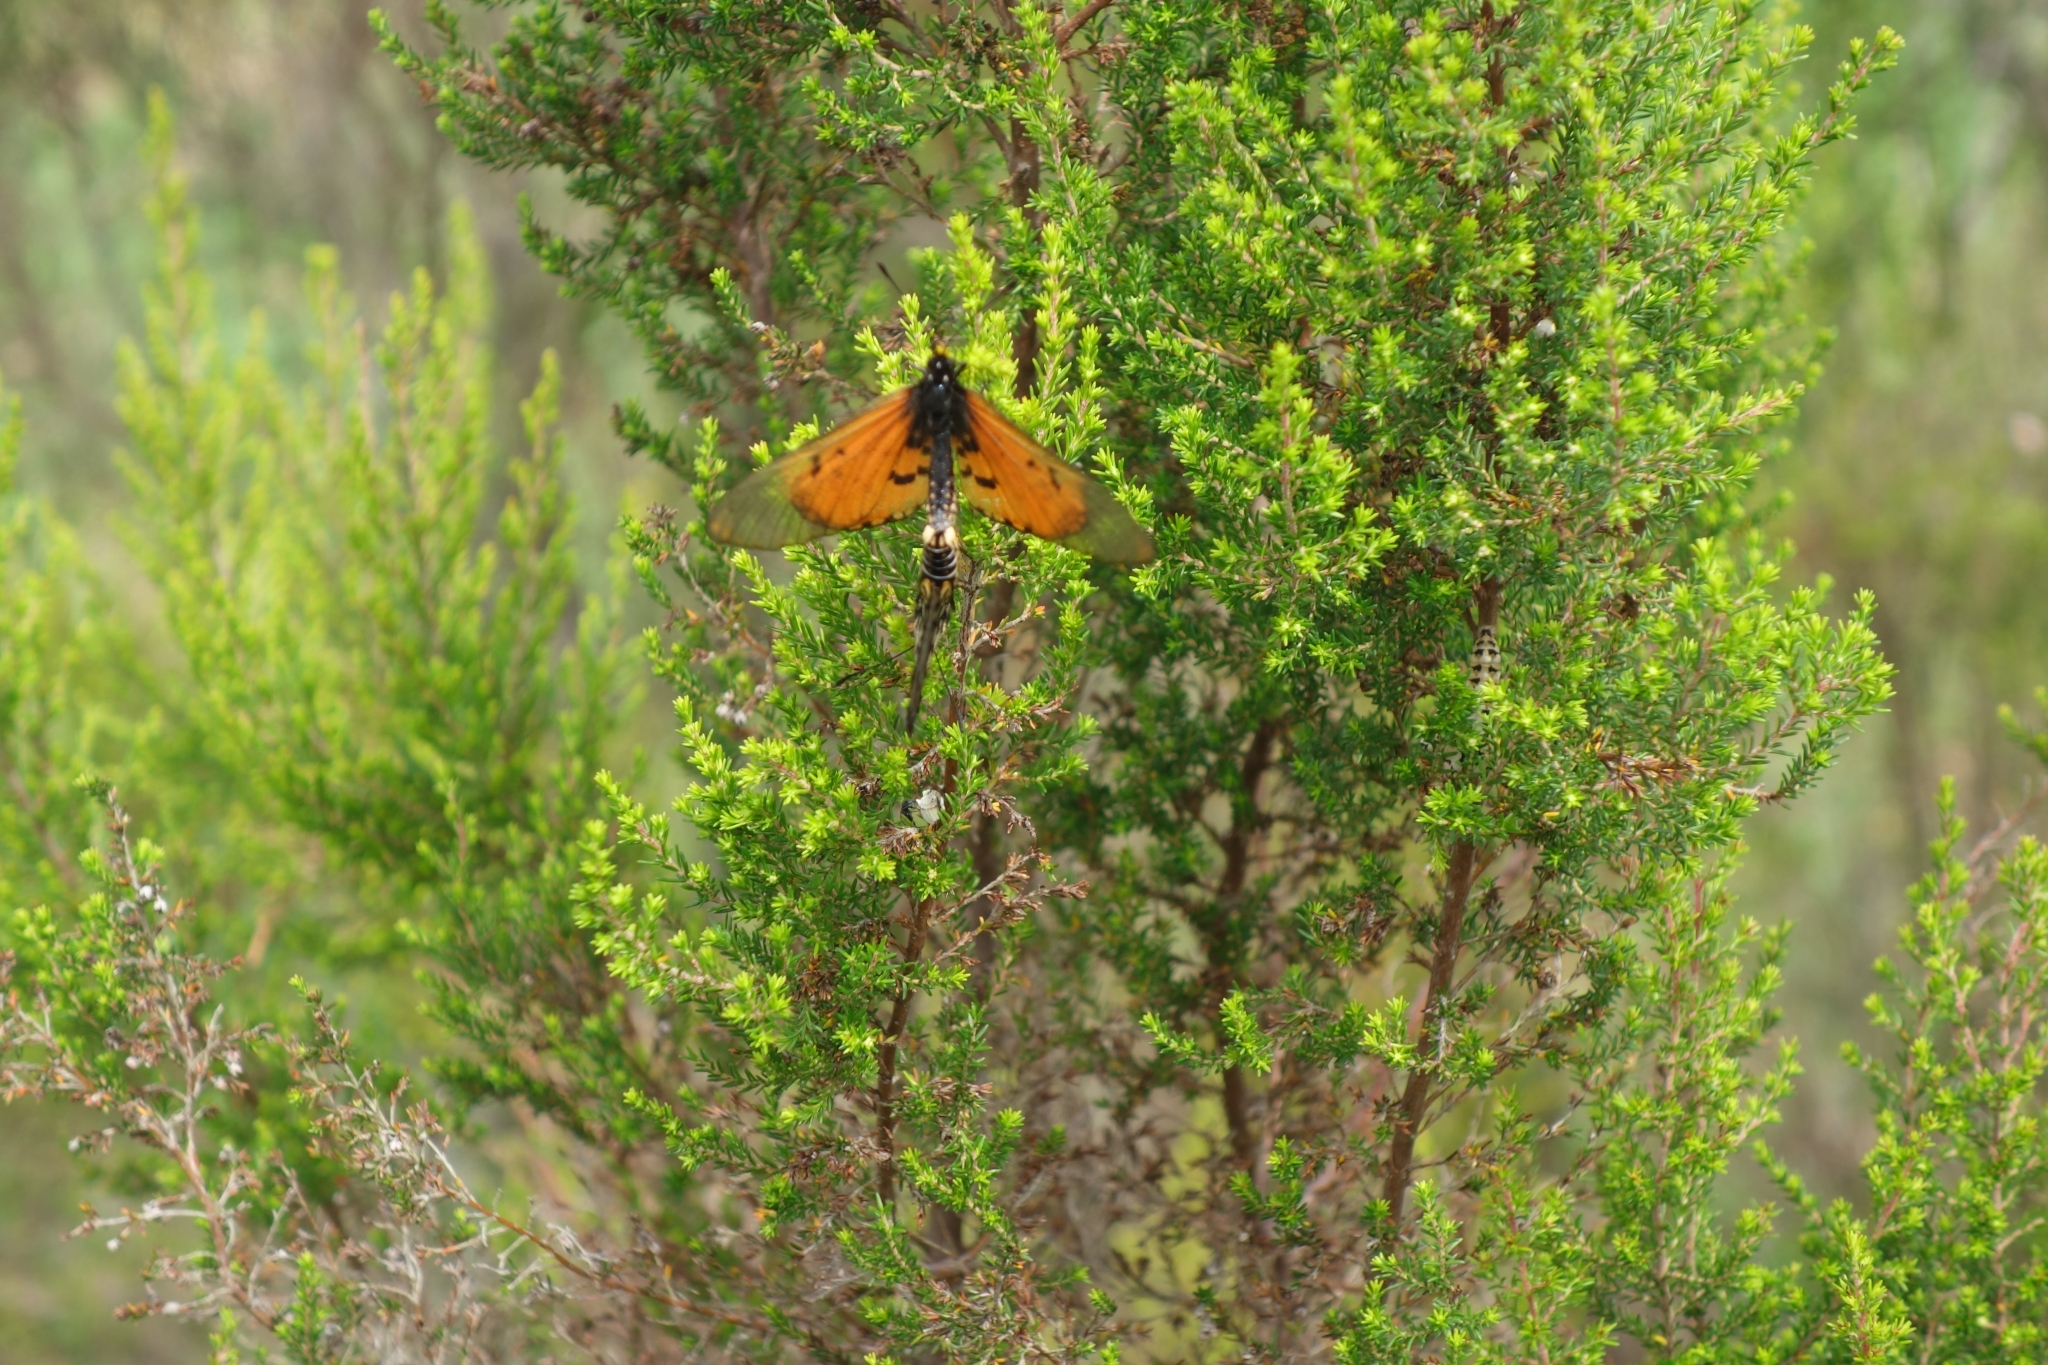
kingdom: Animalia
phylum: Arthropoda
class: Insecta
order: Lepidoptera
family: Nymphalidae
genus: Acraea
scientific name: Acraea horta
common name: Garden acraea
